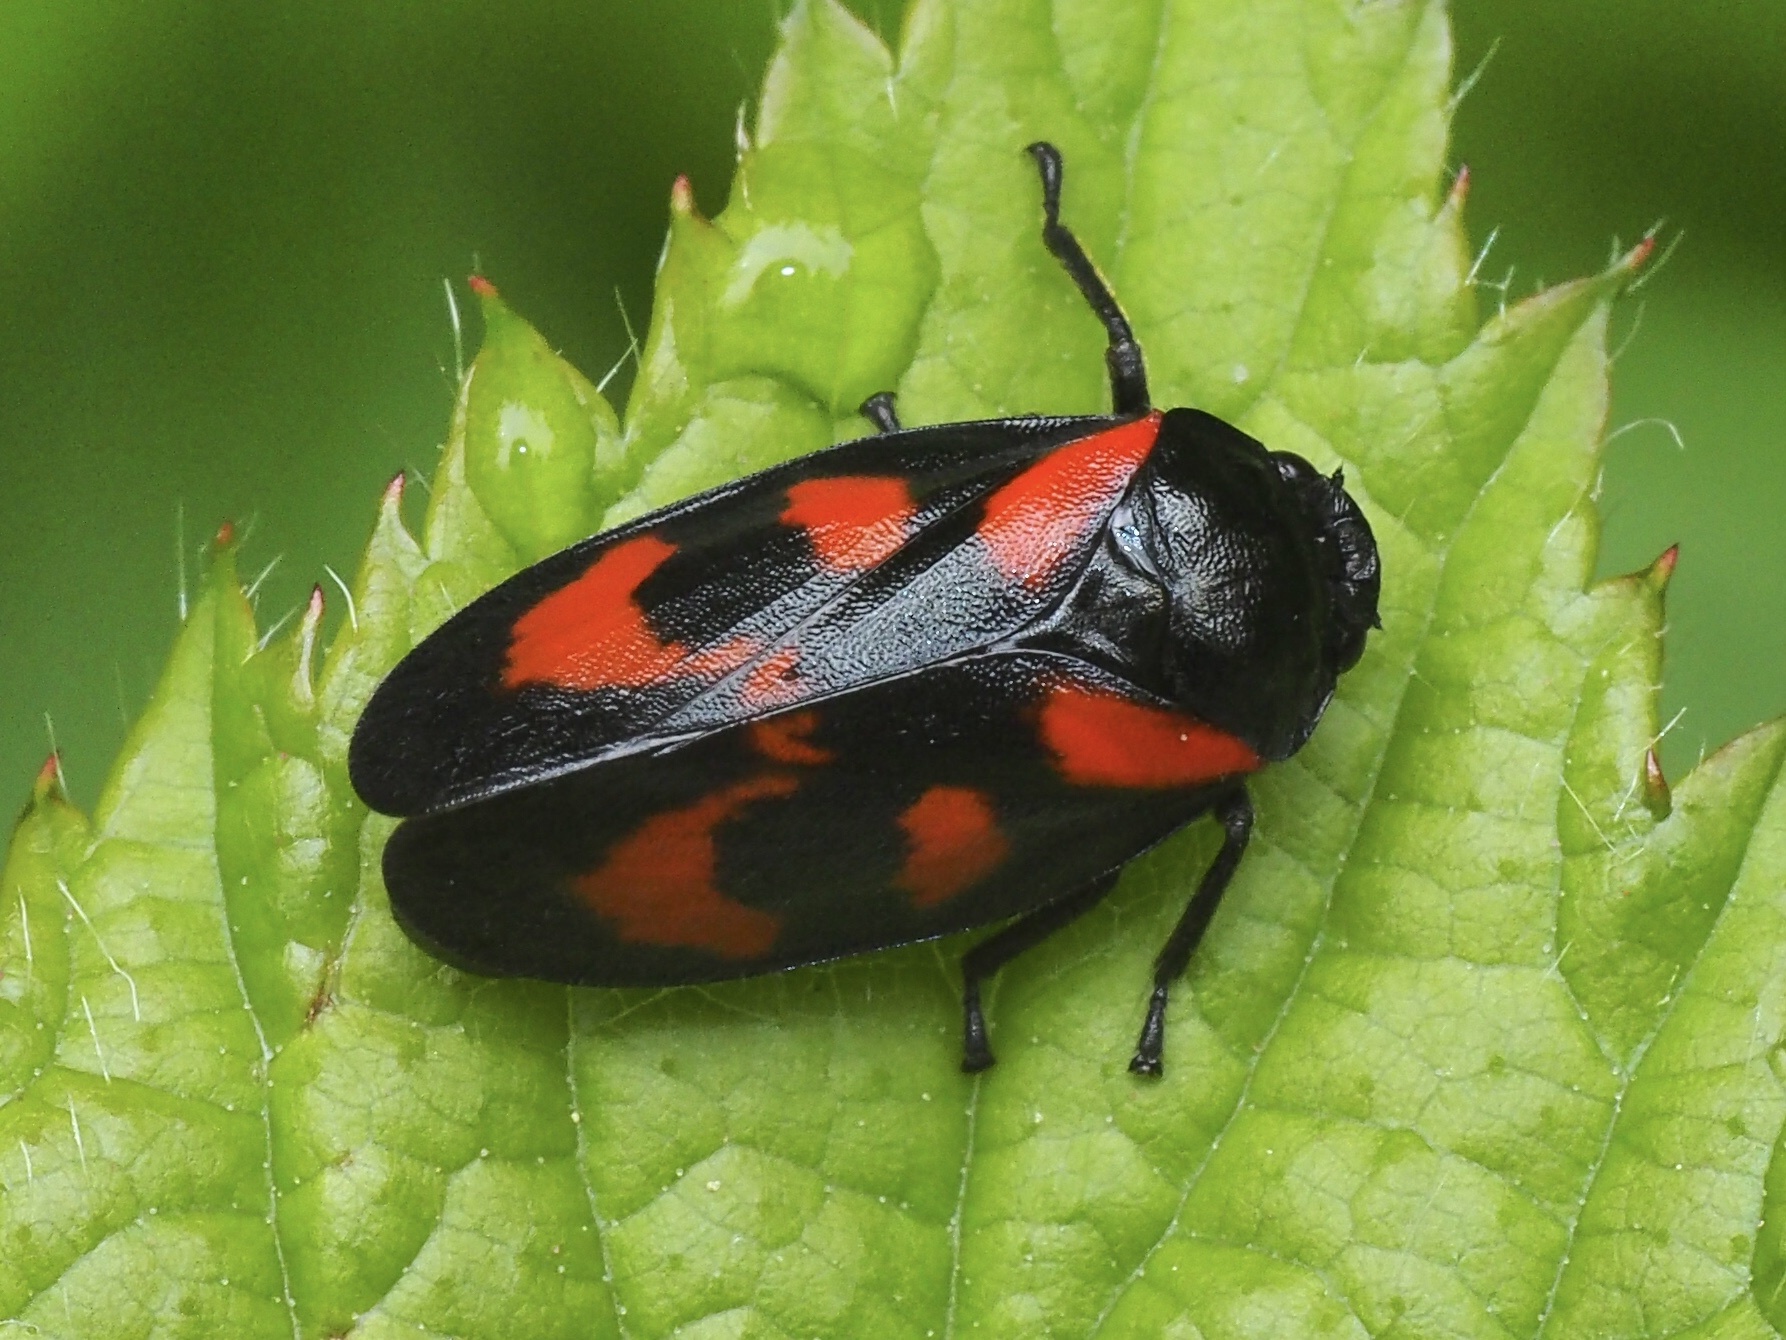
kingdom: Animalia
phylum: Arthropoda
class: Insecta
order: Hemiptera
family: Cercopidae
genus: Cercopis
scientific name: Cercopis vulnerata
